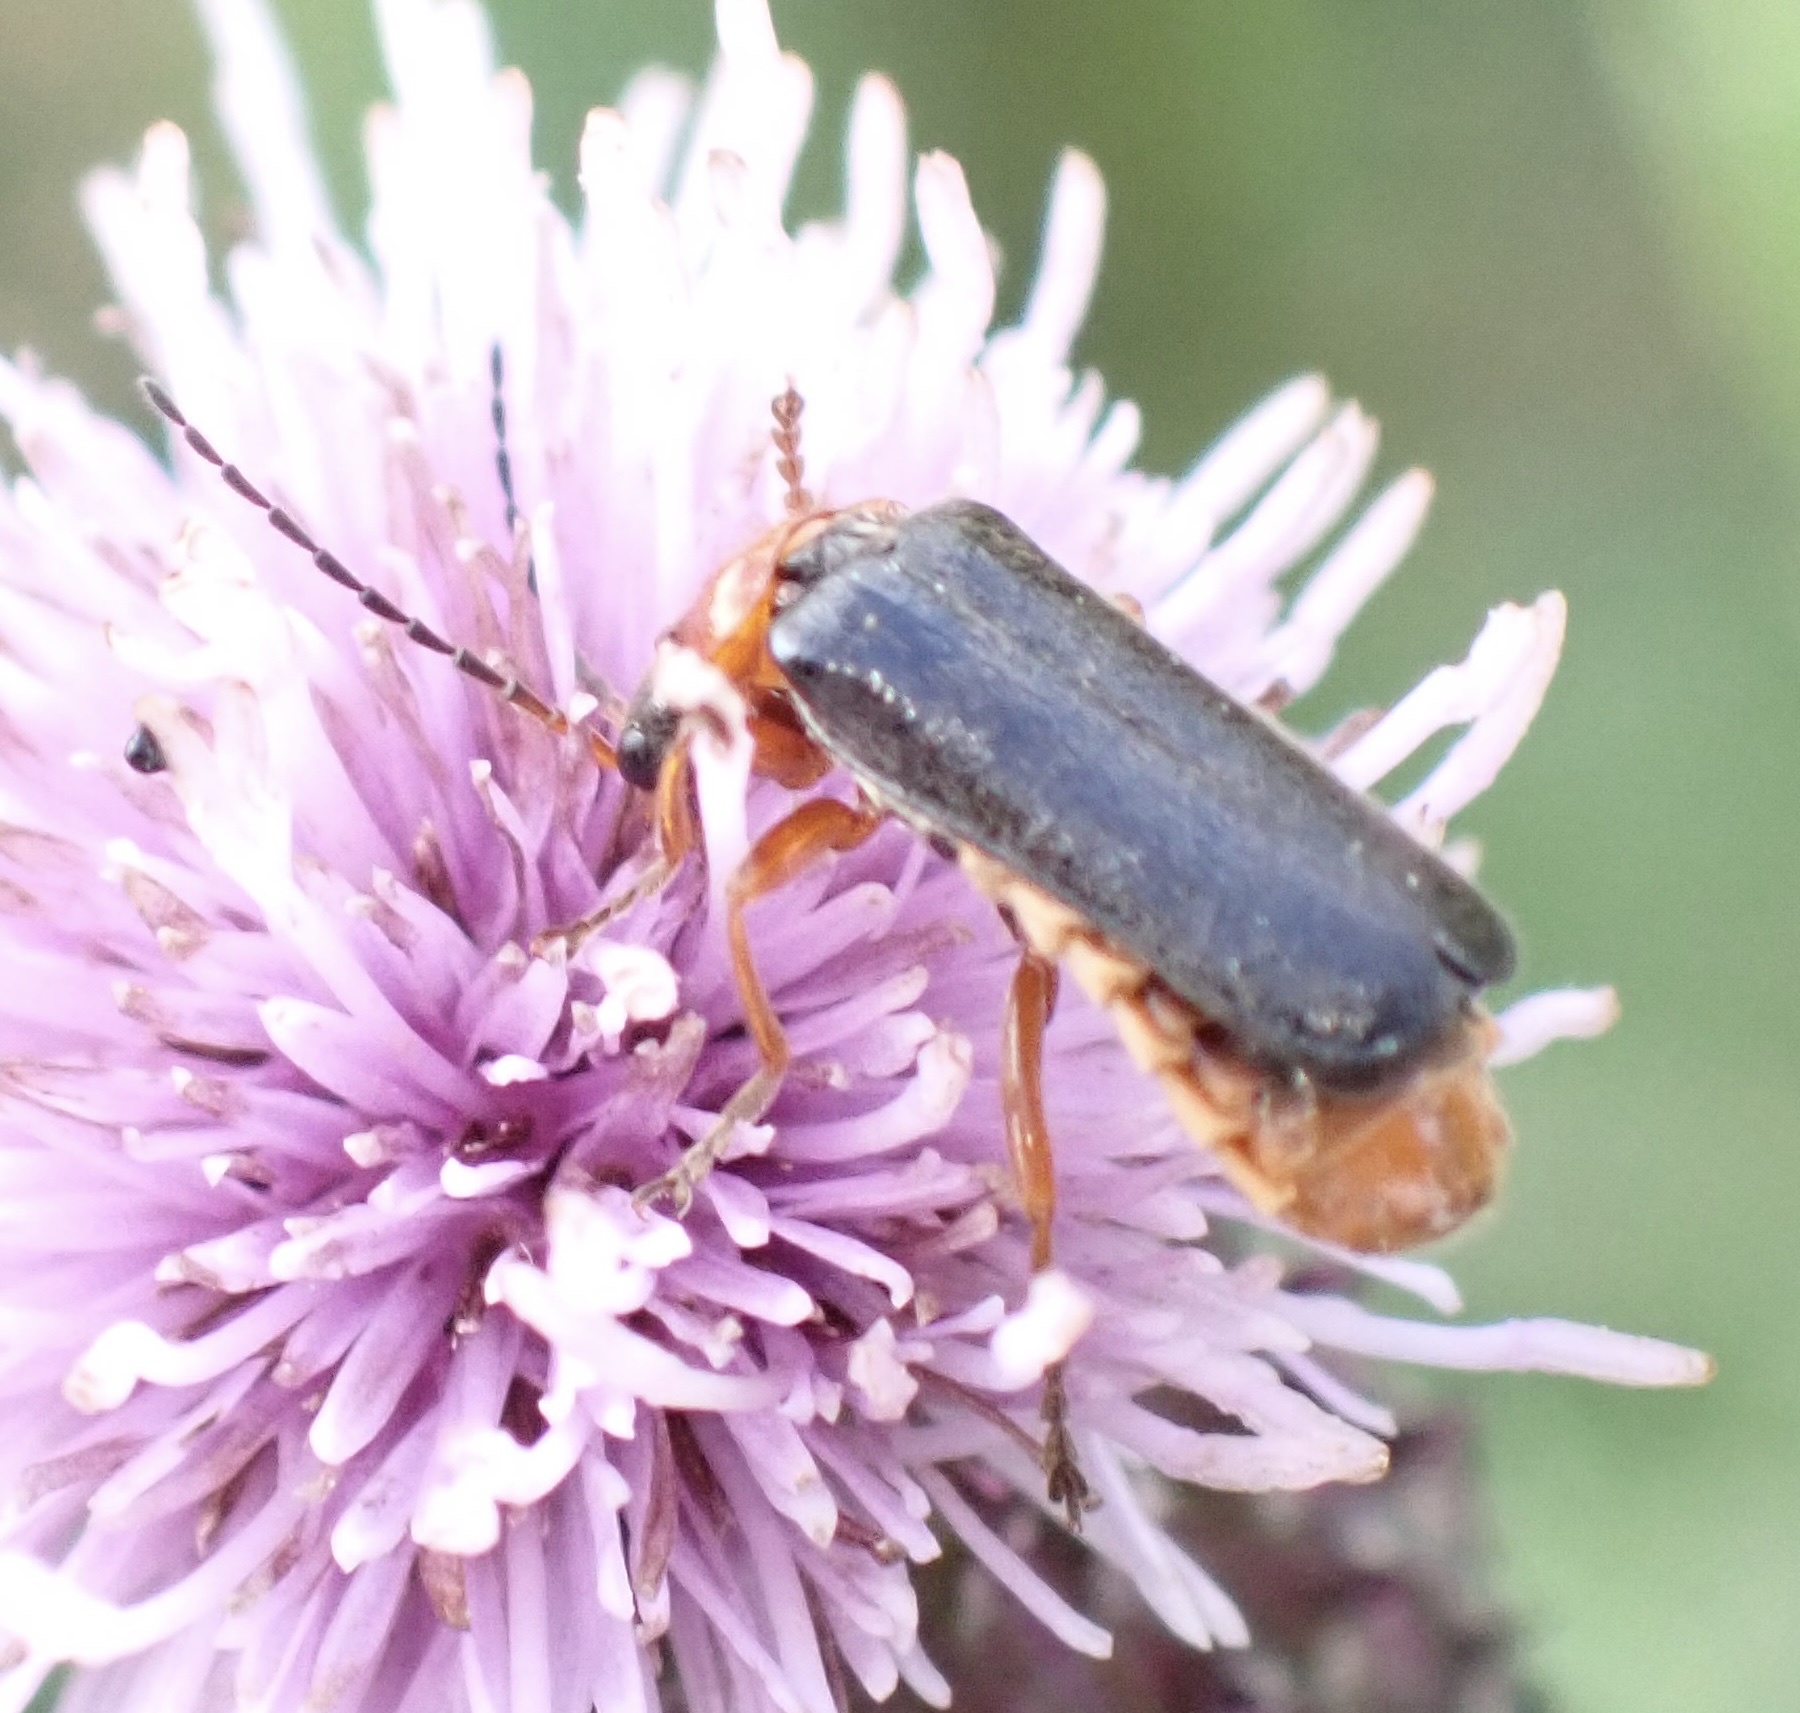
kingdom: Animalia
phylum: Arthropoda
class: Insecta
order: Coleoptera
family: Cantharidae
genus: Cantharis
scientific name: Cantharis flavilabris
